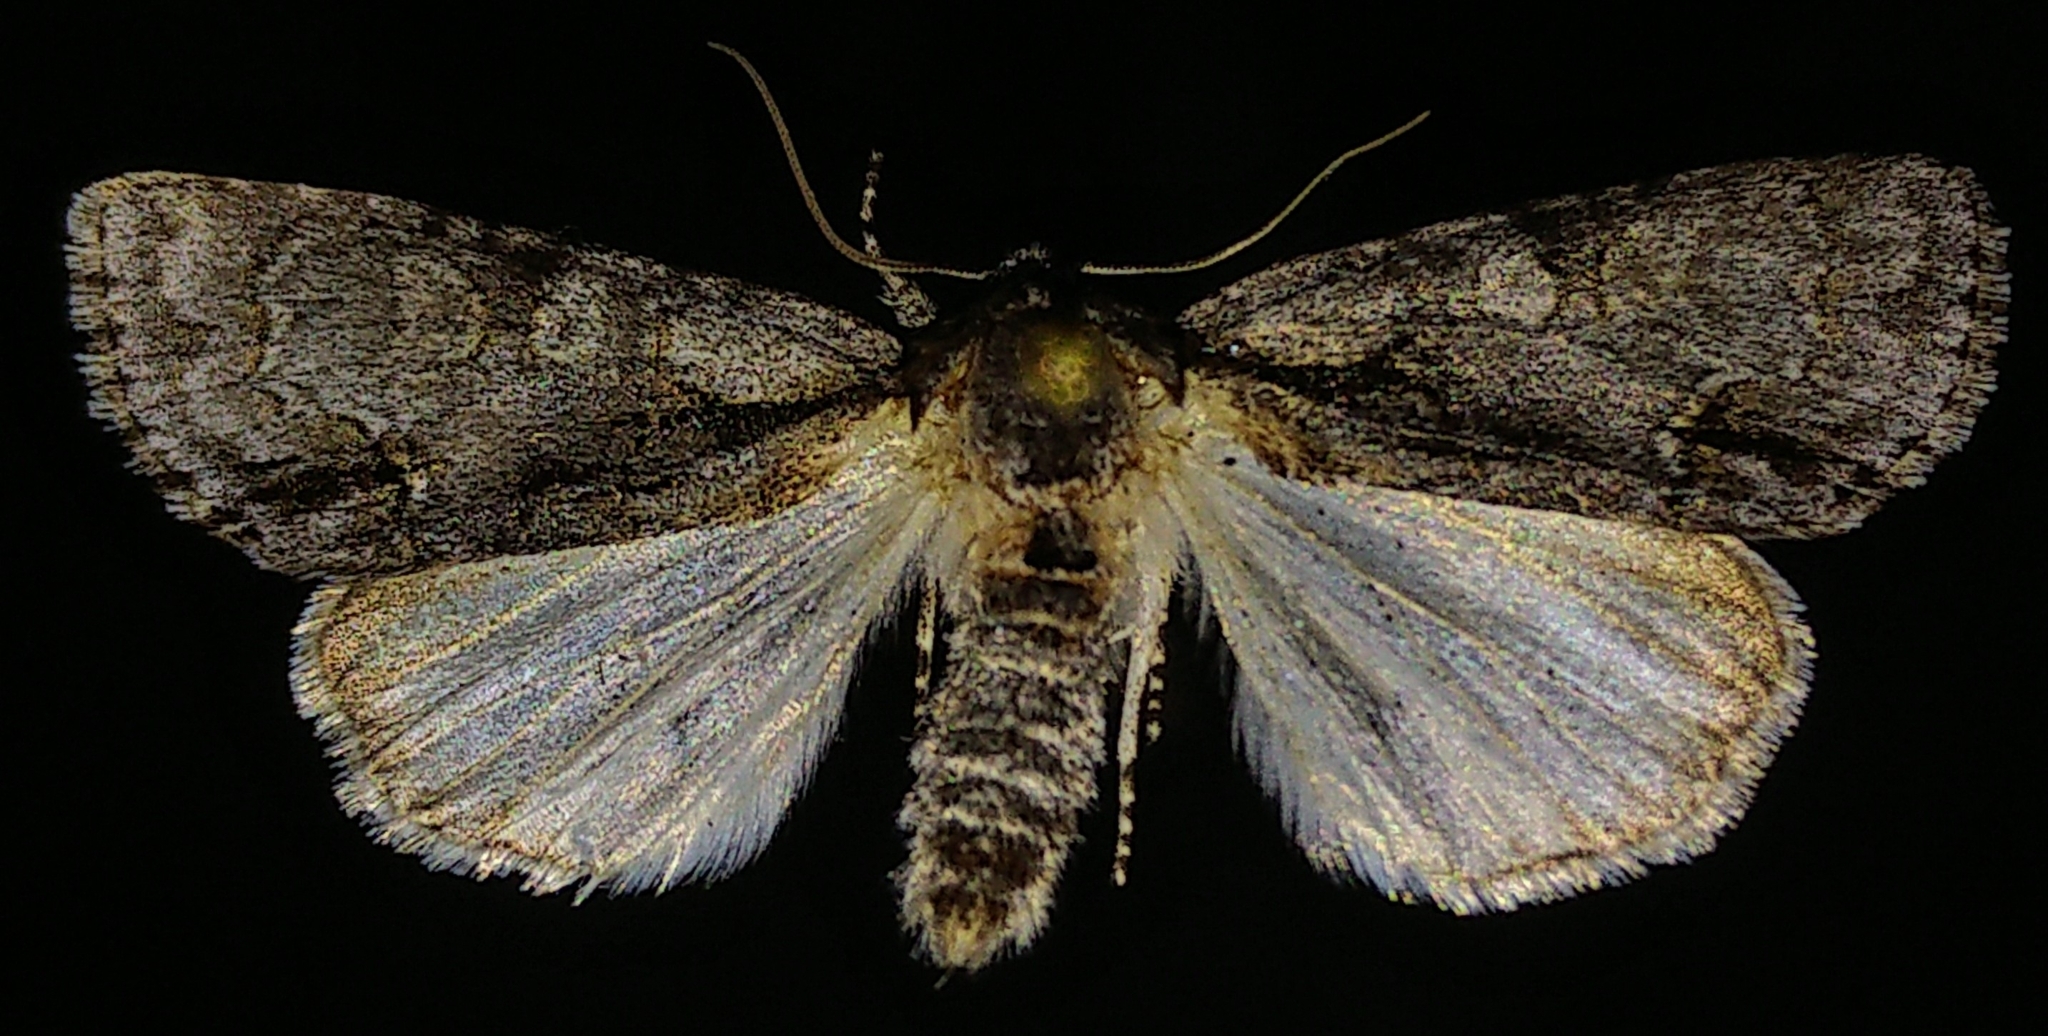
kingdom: Animalia
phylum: Arthropoda
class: Insecta
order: Lepidoptera
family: Noctuidae
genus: Acronicta
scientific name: Acronicta mansueta
